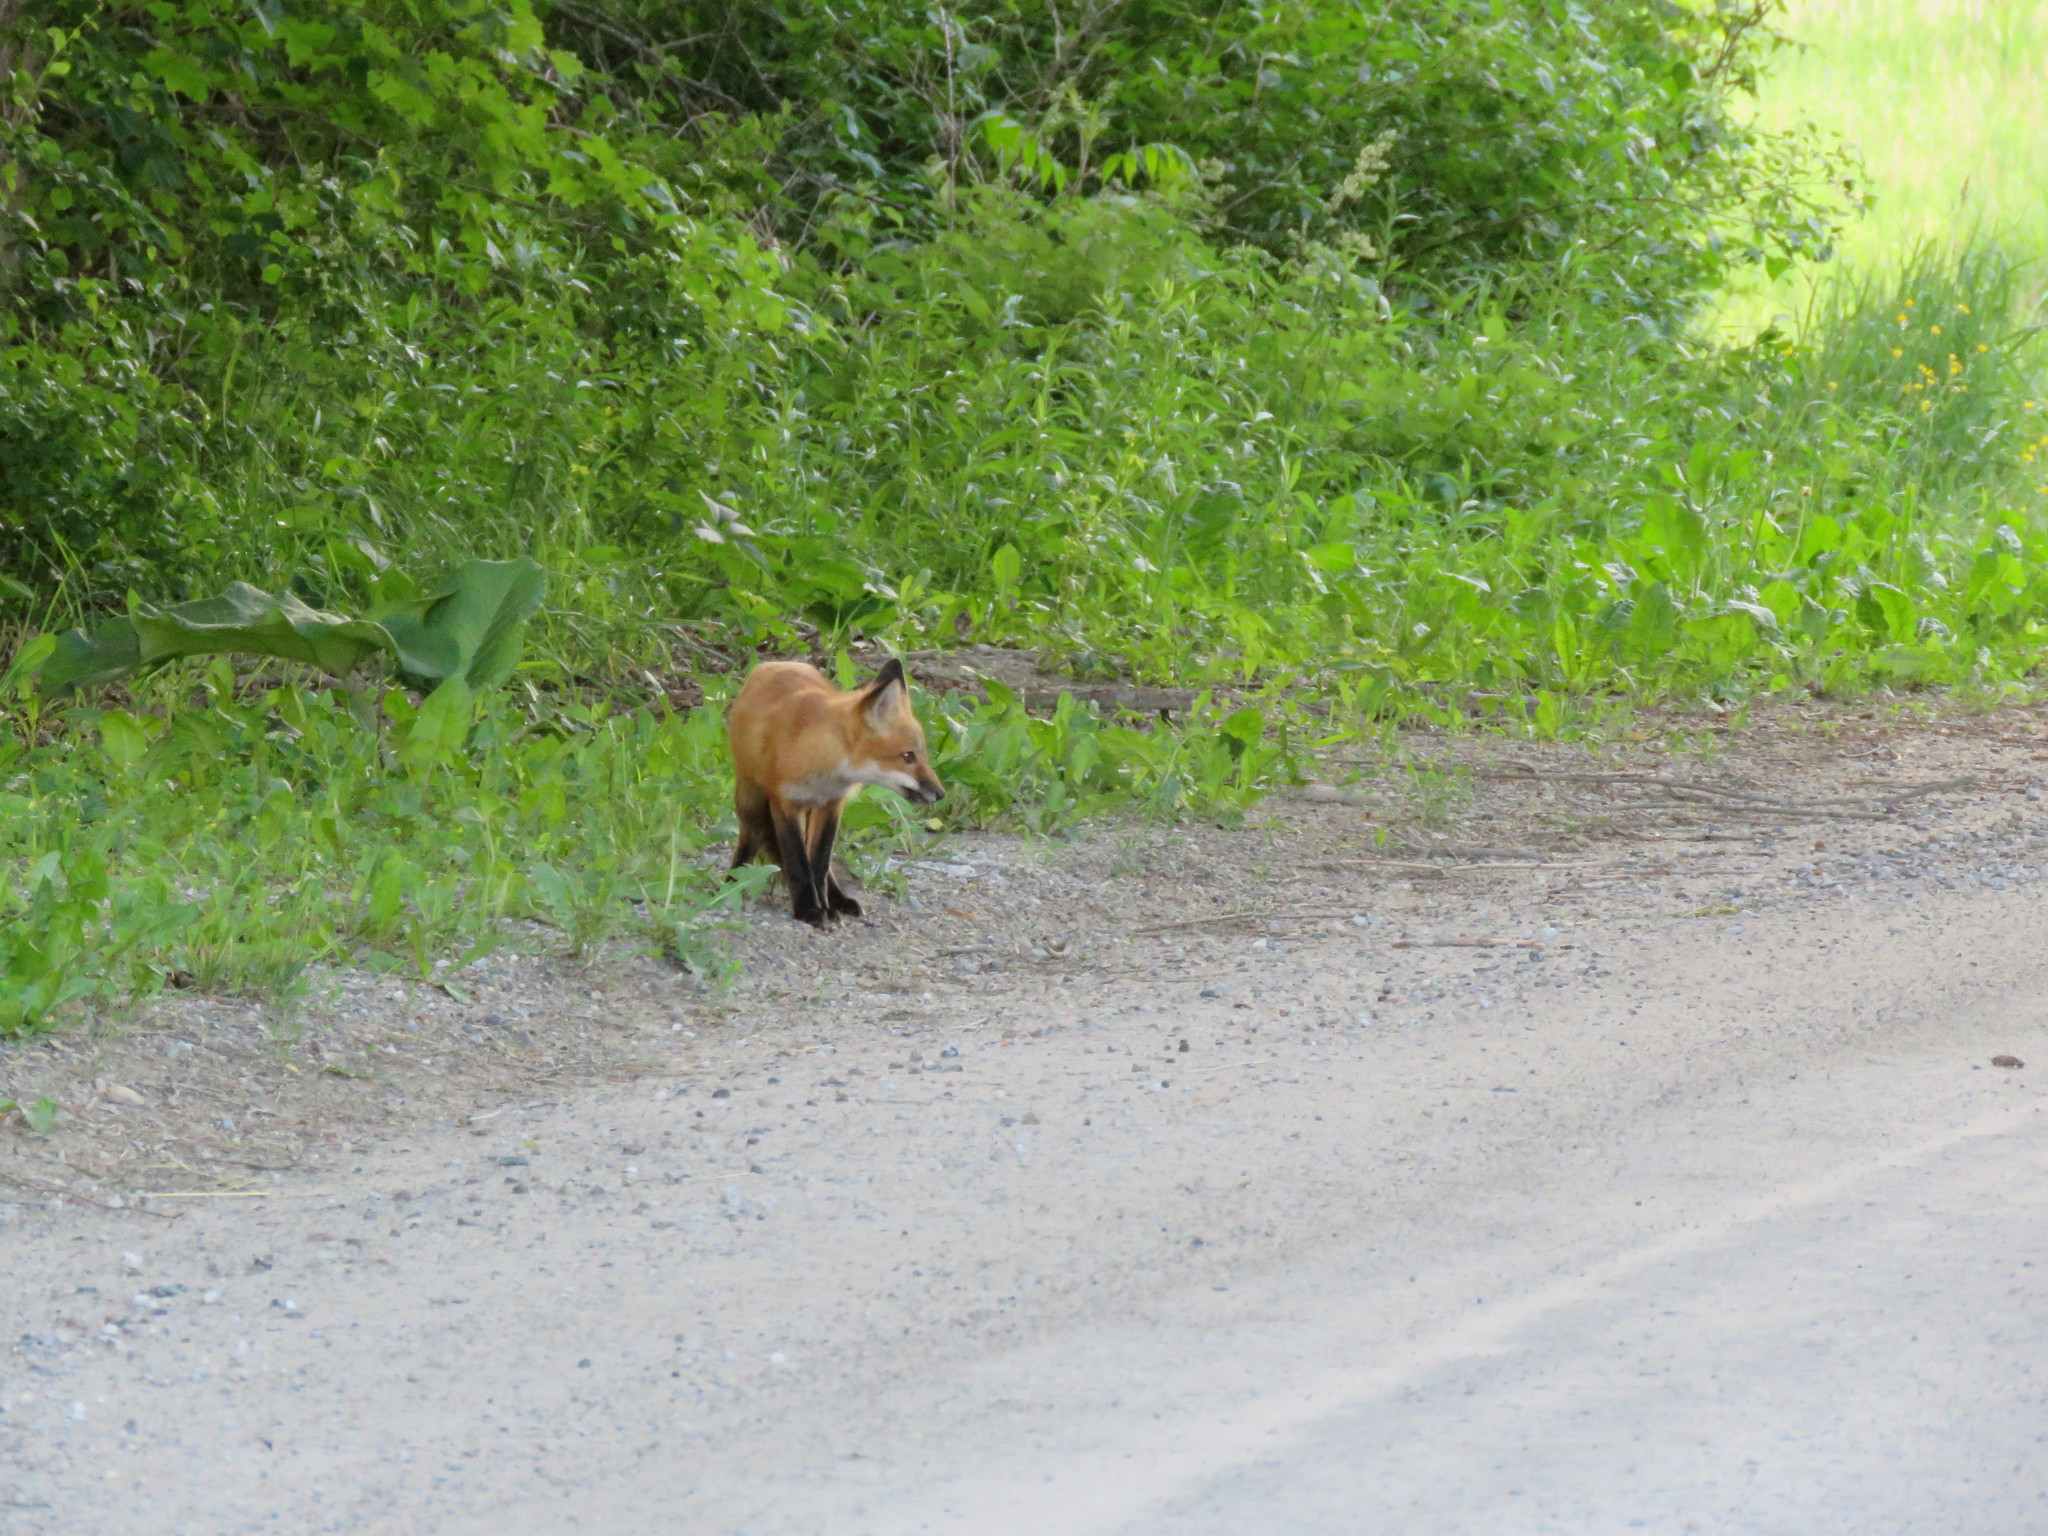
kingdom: Animalia
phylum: Chordata
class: Mammalia
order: Carnivora
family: Canidae
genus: Vulpes
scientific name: Vulpes vulpes
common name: Red fox
